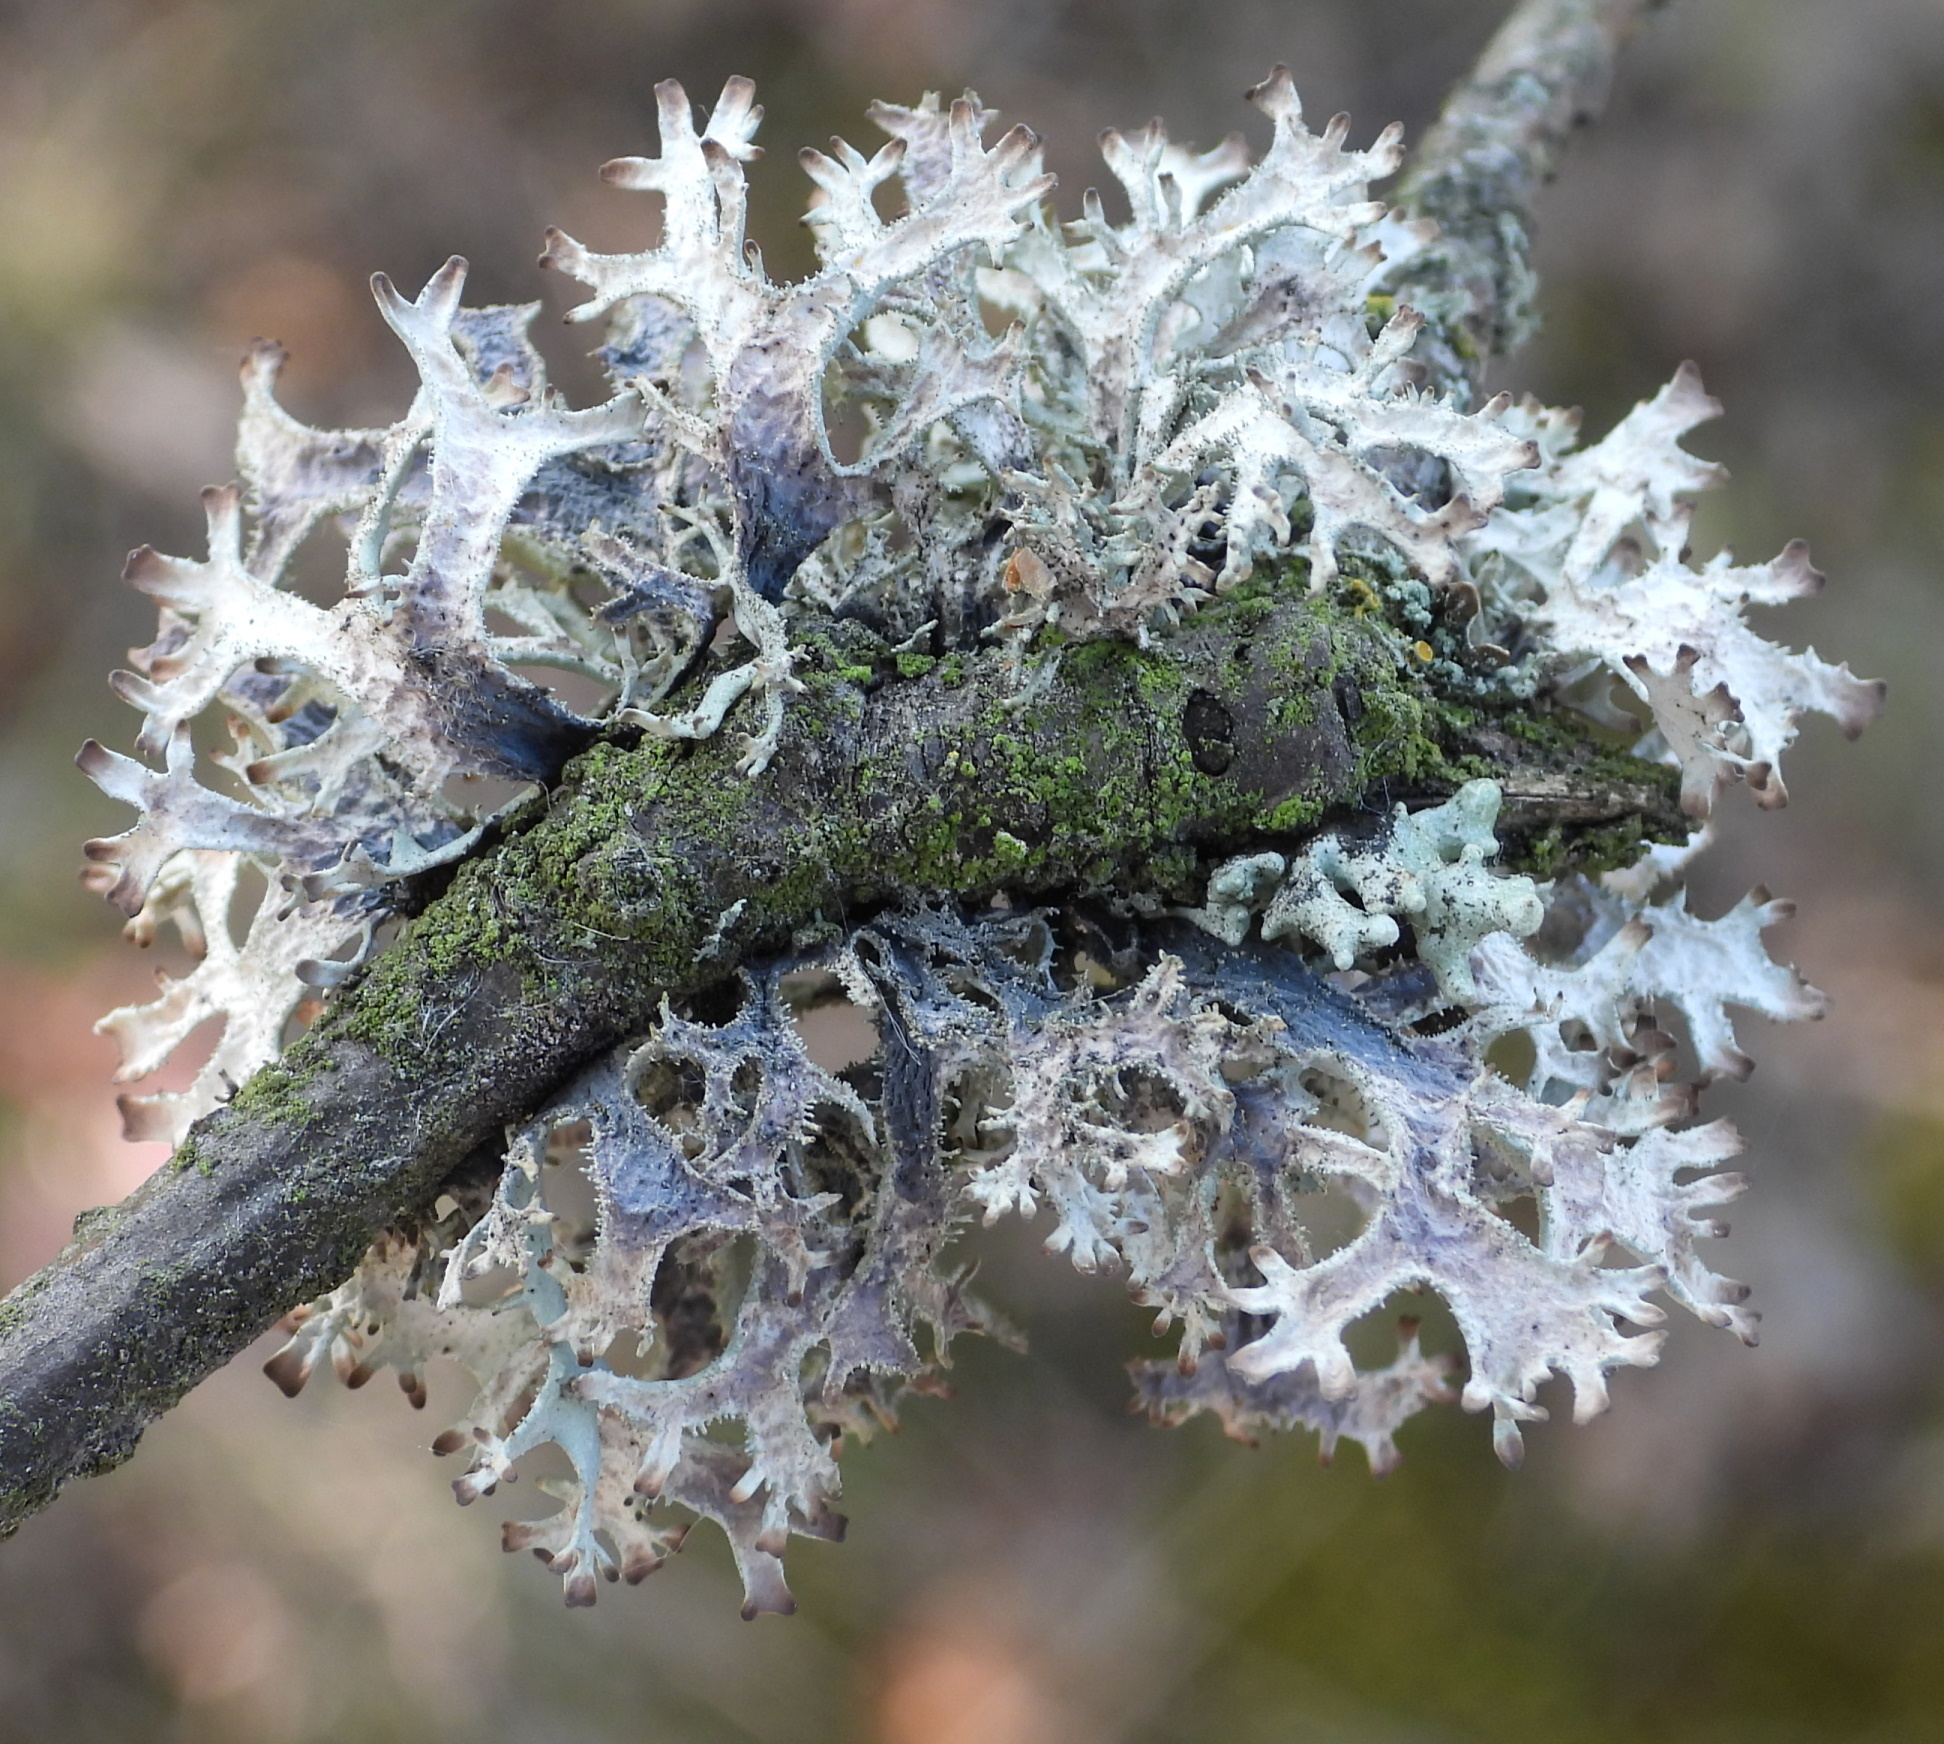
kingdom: Fungi
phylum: Ascomycota
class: Lecanoromycetes
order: Lecanorales
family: Parmeliaceae
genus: Pseudevernia
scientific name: Pseudevernia furfuracea
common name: Tree moss
